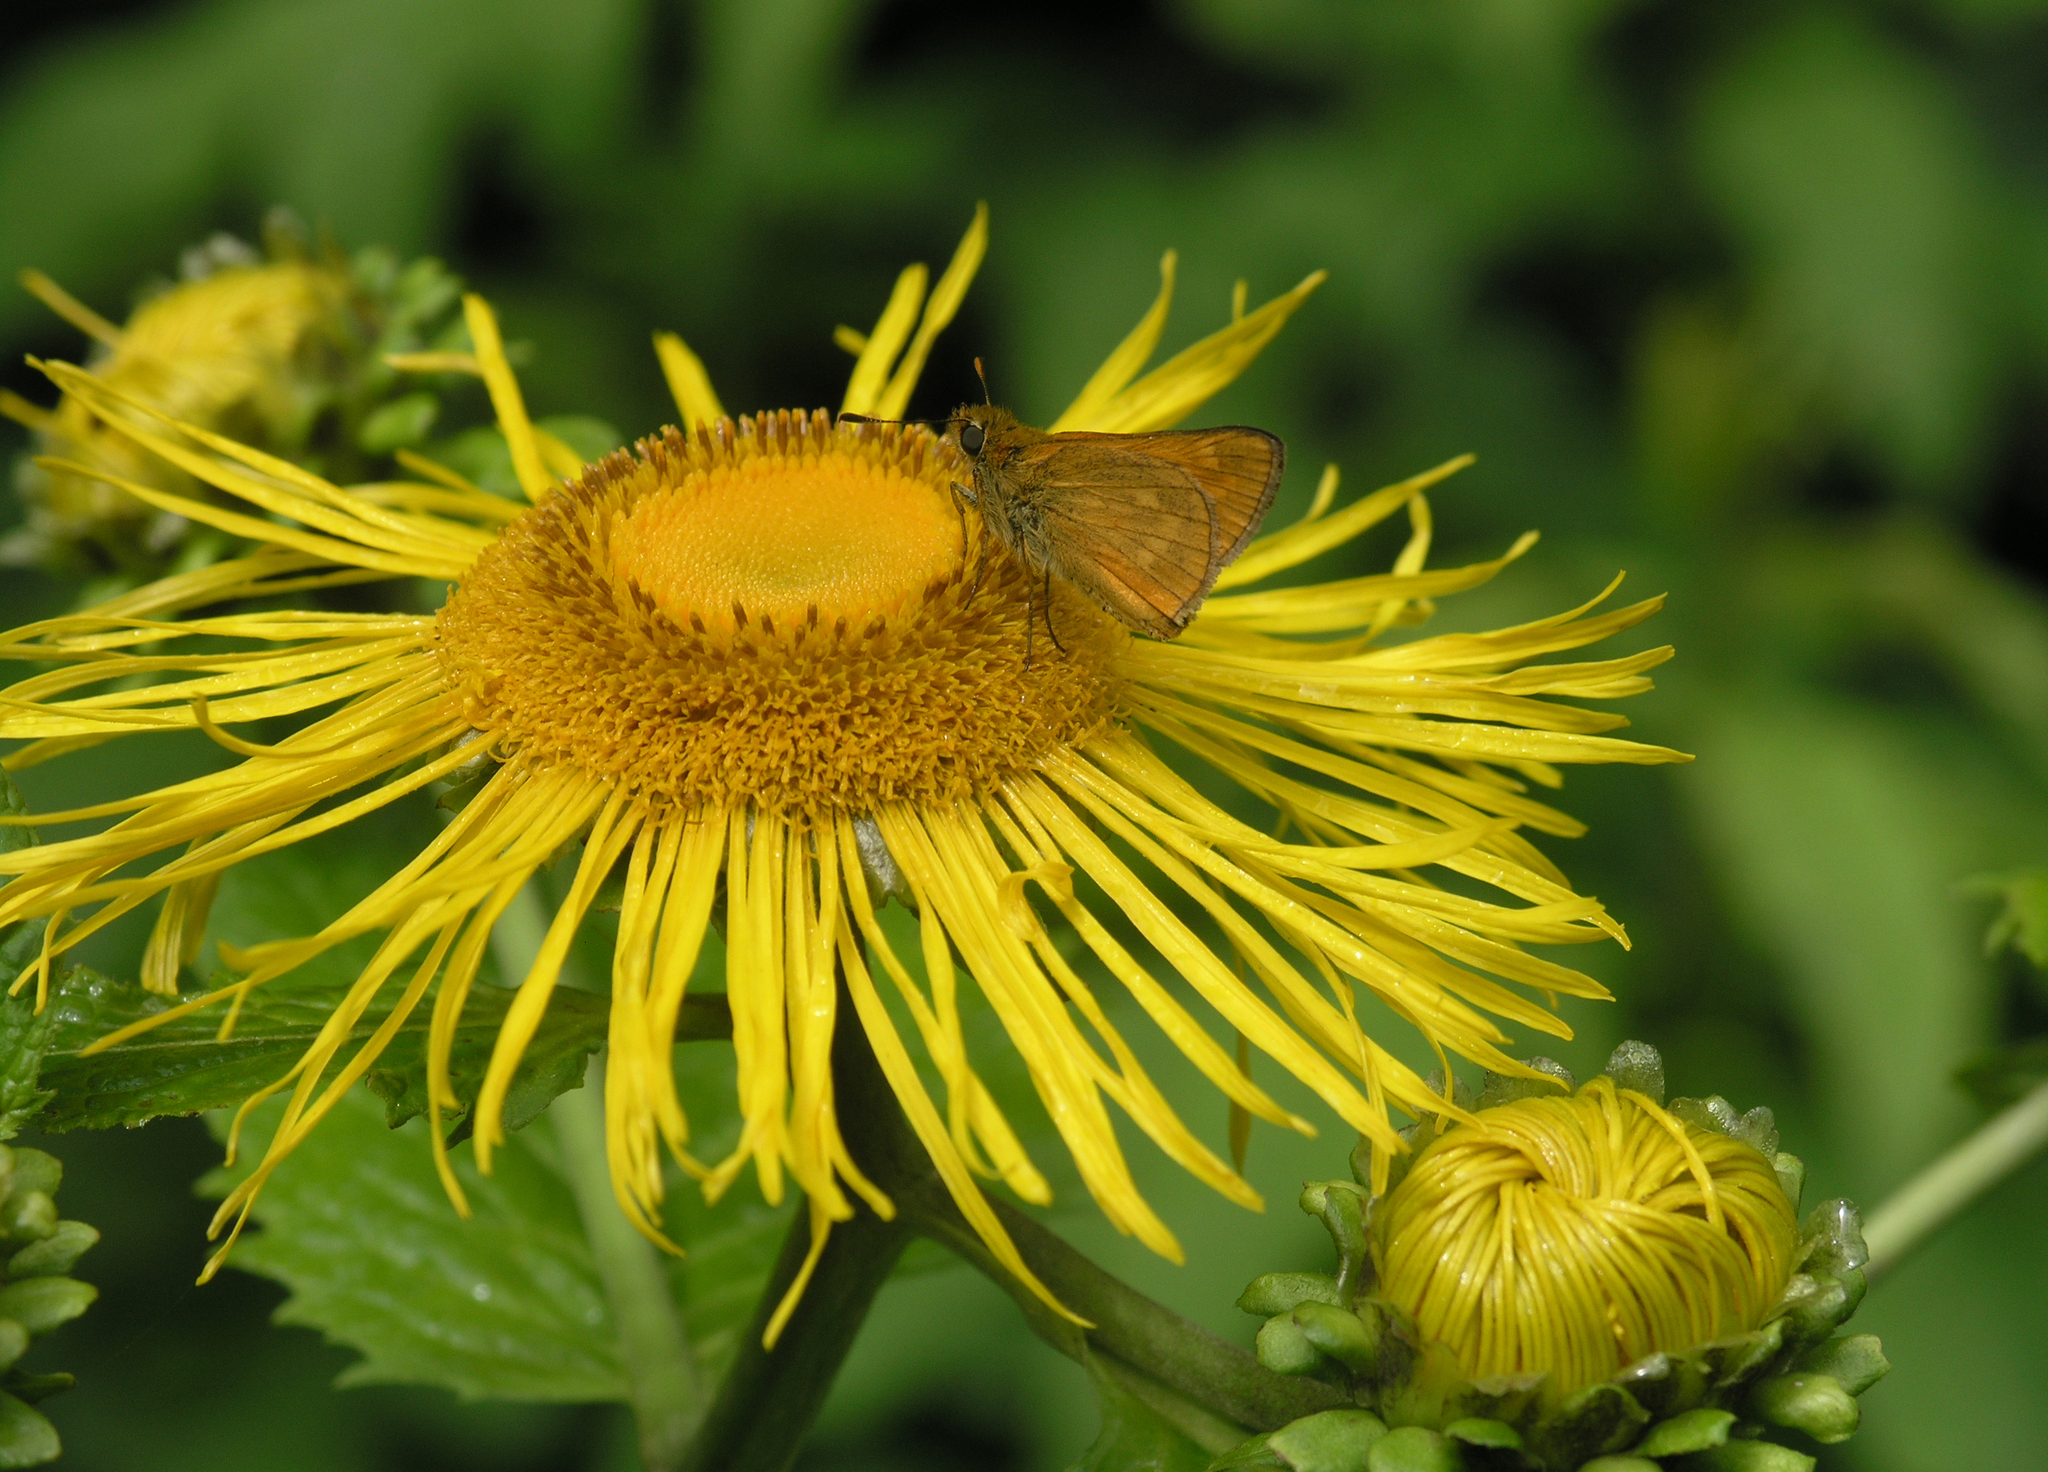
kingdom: Plantae
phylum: Tracheophyta
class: Magnoliopsida
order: Asterales
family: Asteraceae
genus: Telekia
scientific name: Telekia speciosa
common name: Yellow oxeye
